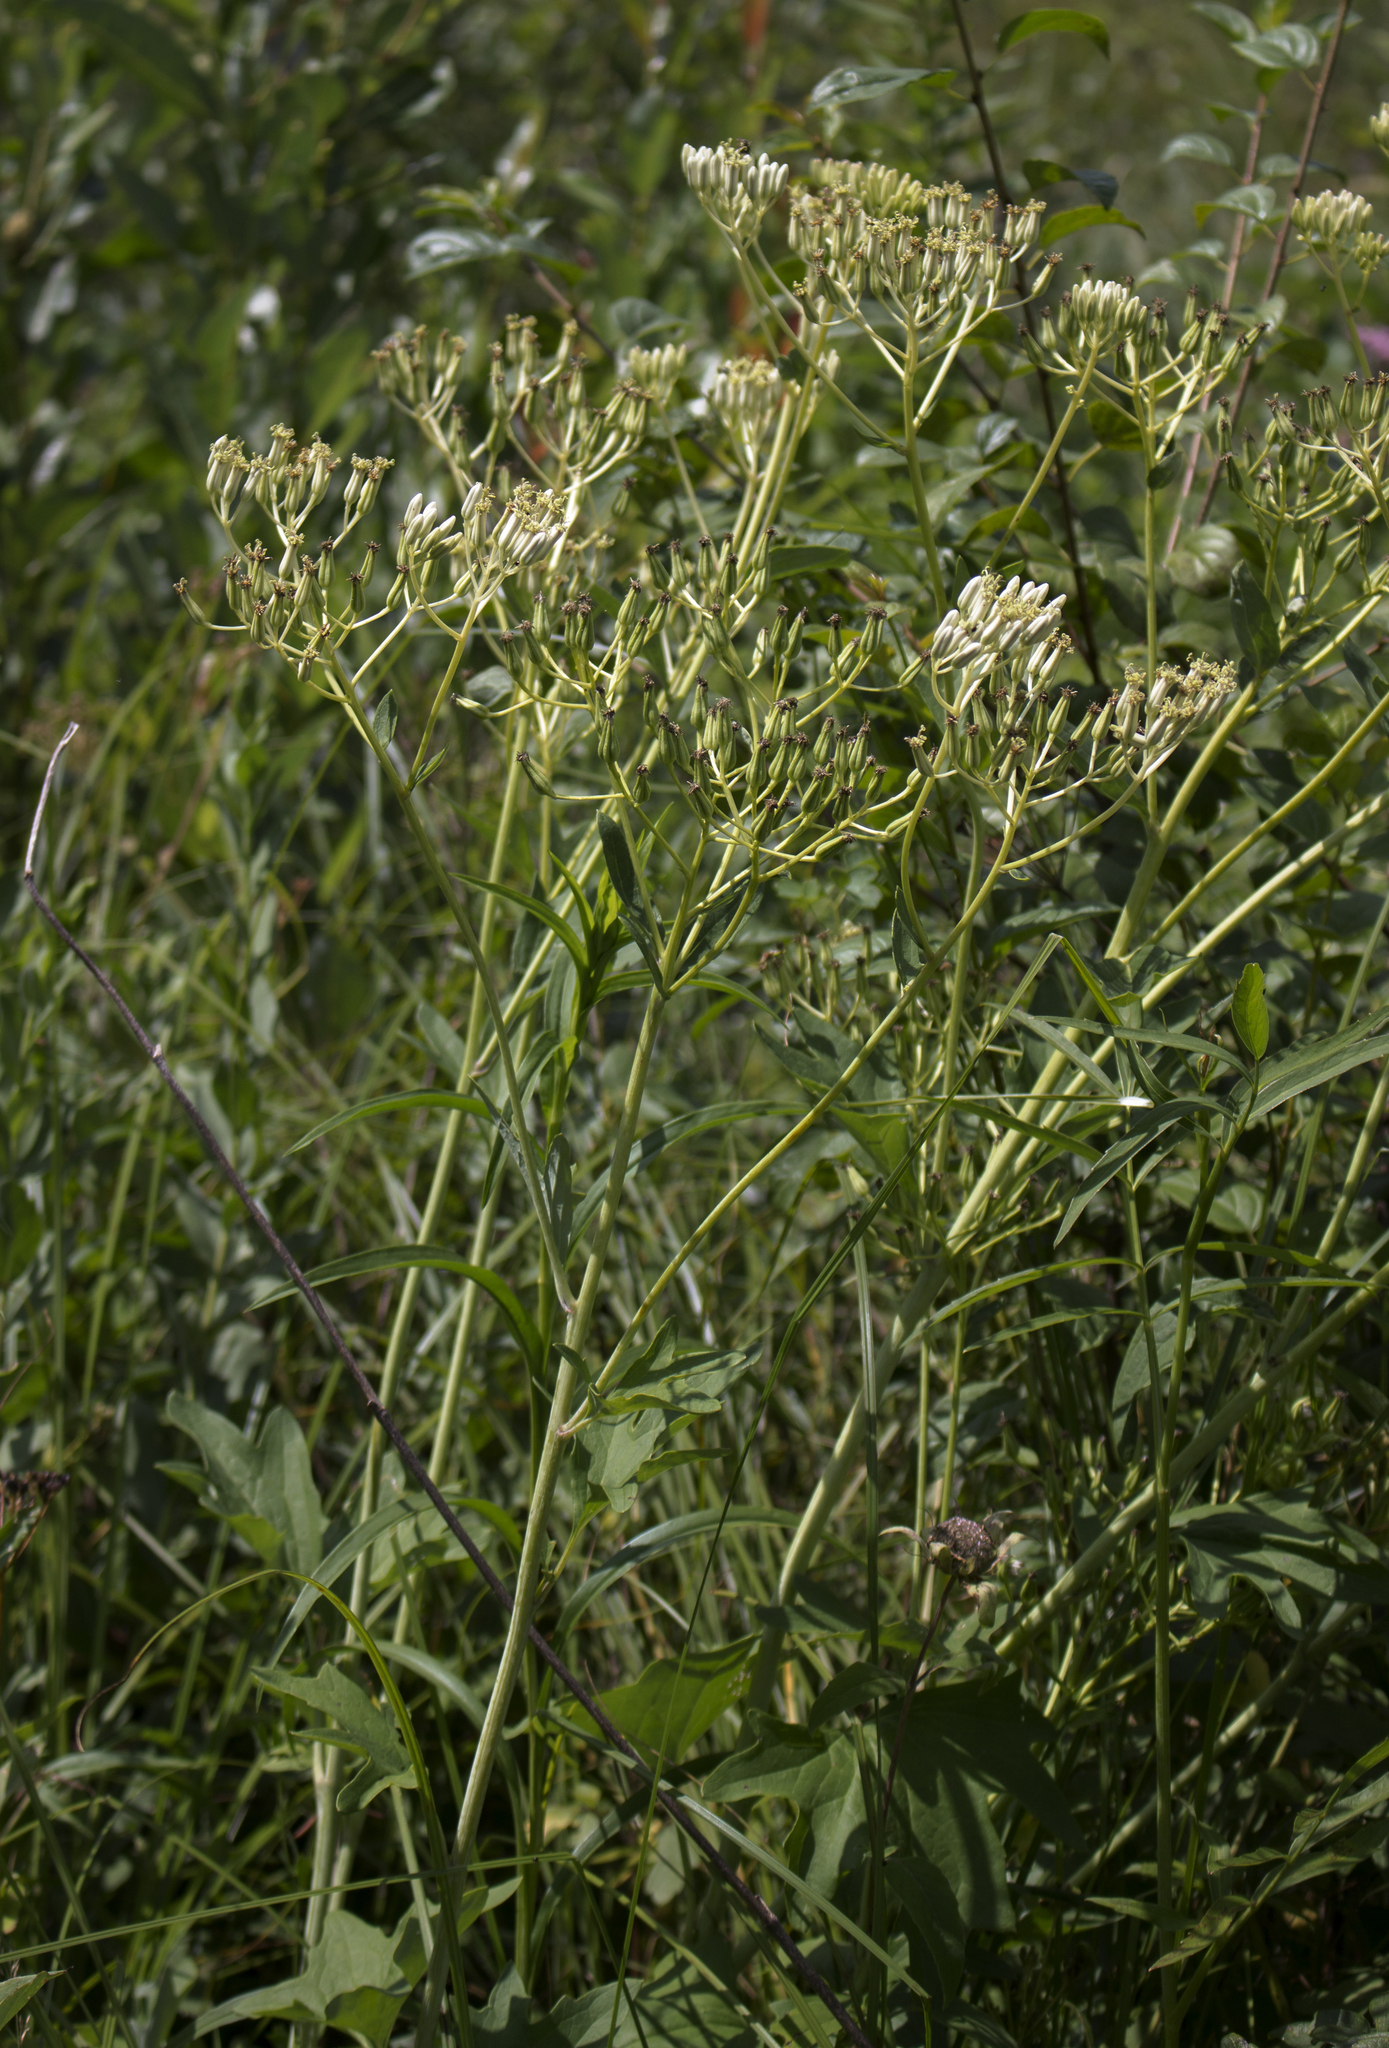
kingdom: Plantae
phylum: Tracheophyta
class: Magnoliopsida
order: Asterales
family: Asteraceae
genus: Arnoglossum
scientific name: Arnoglossum atriplicifolium
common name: Pale indian-plantain
